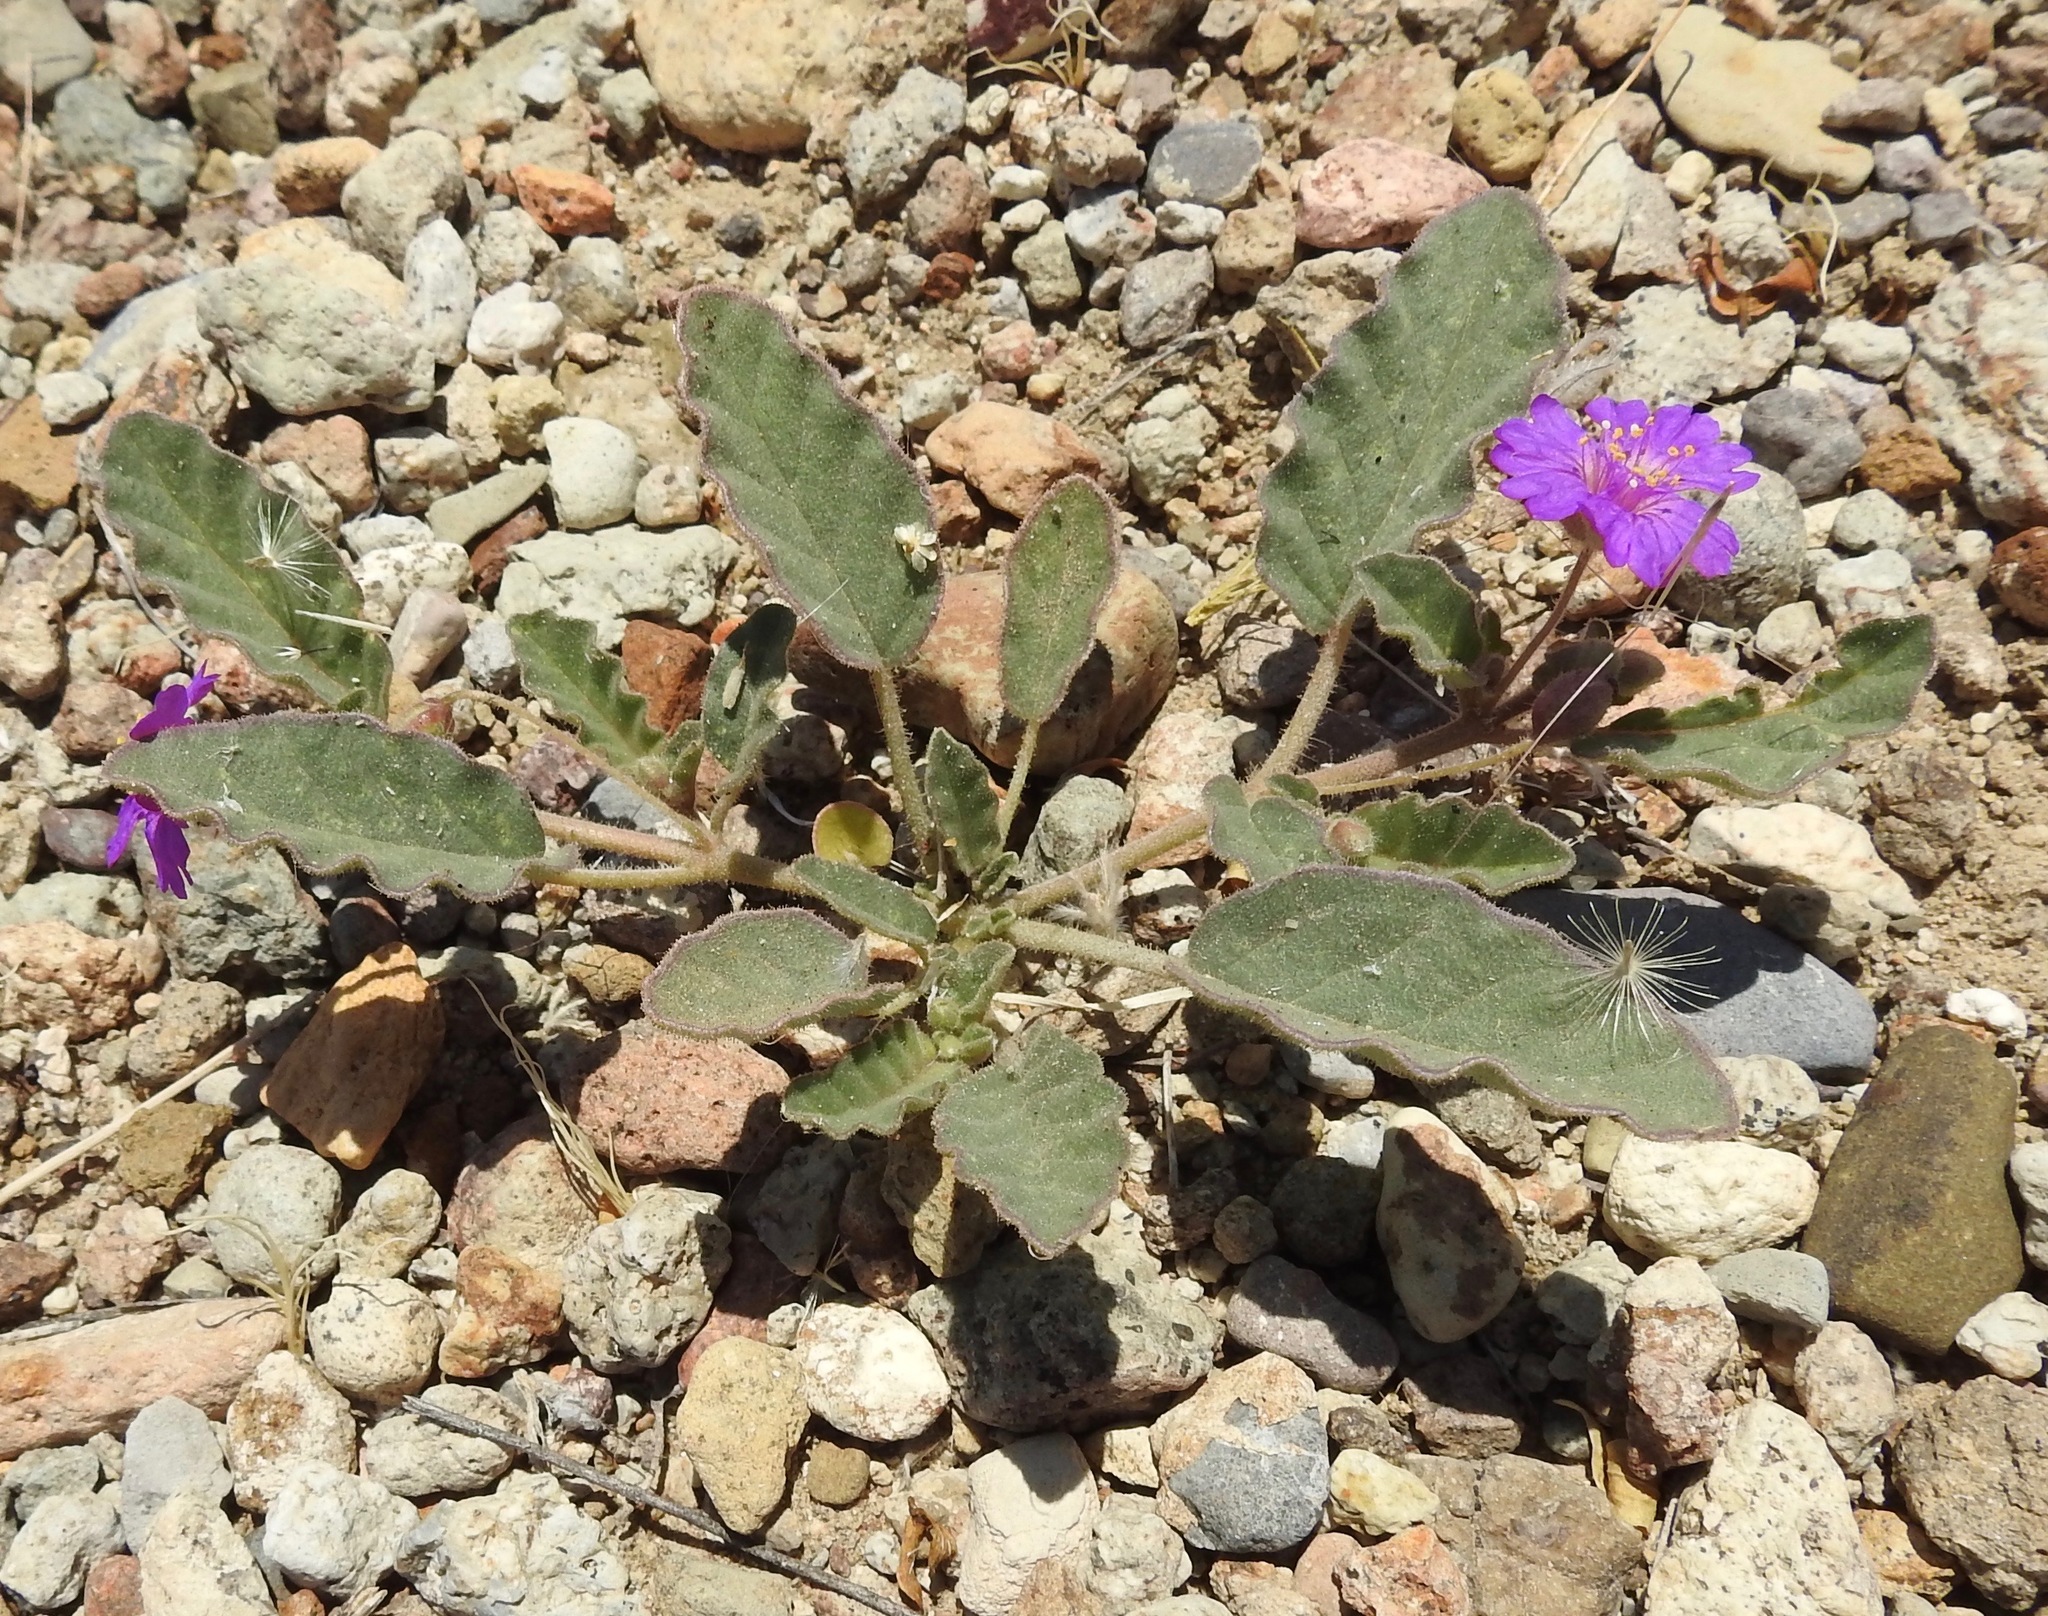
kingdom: Plantae
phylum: Tracheophyta
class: Magnoliopsida
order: Caryophyllales
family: Nyctaginaceae
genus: Allionia
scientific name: Allionia incarnata
